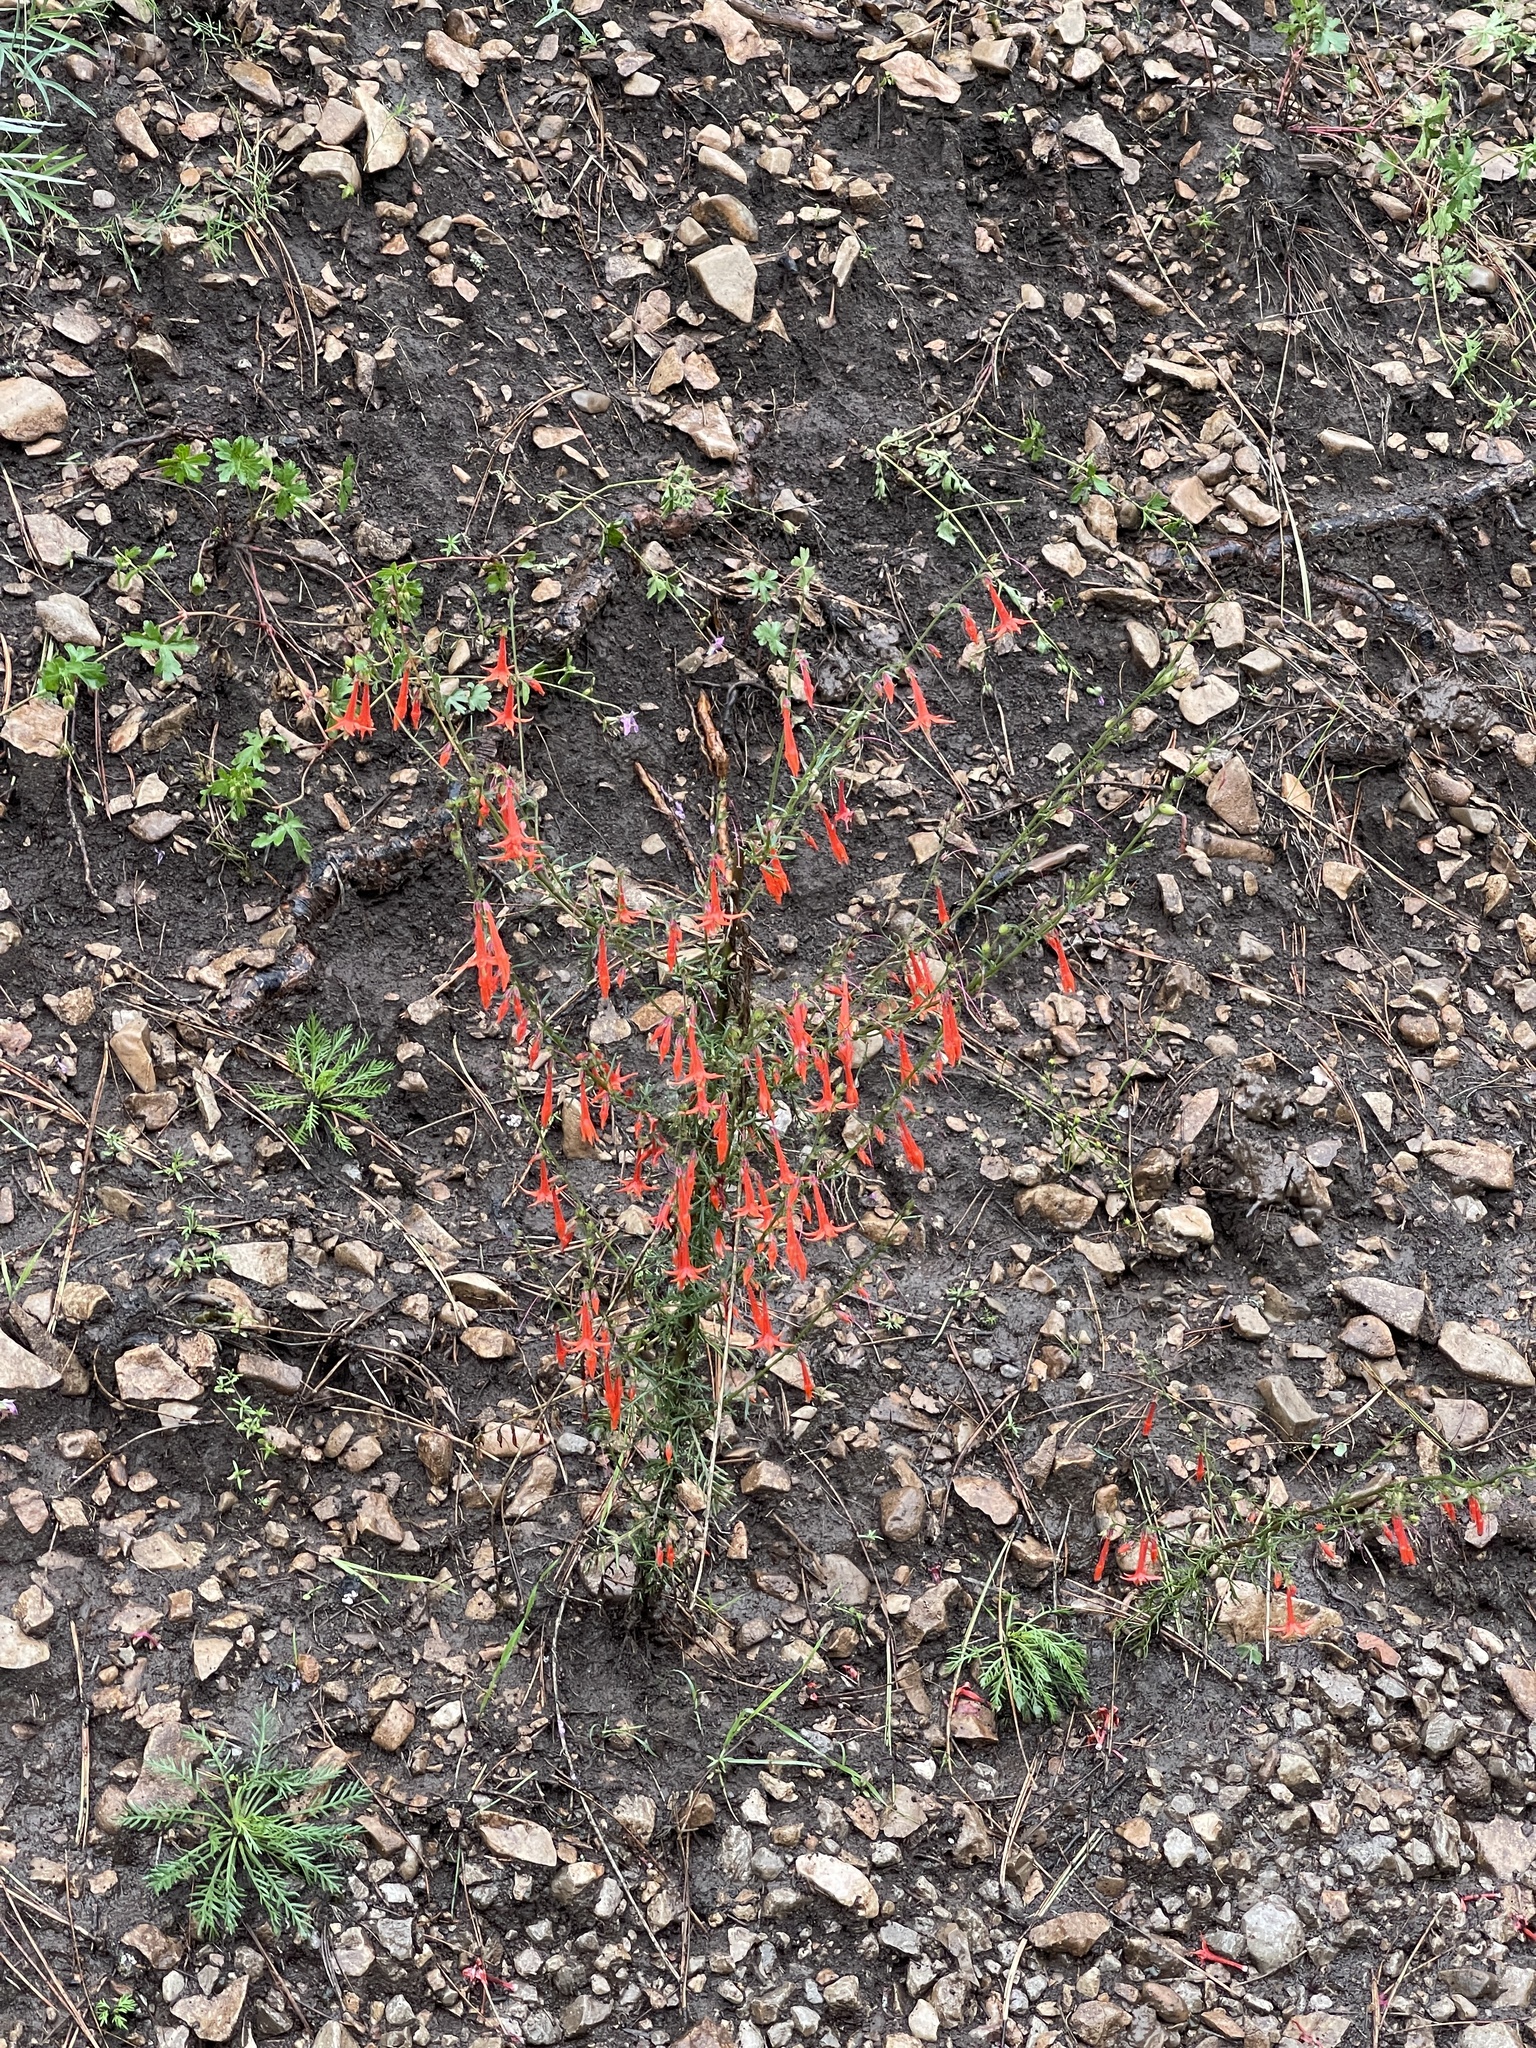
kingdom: Plantae
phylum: Tracheophyta
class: Magnoliopsida
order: Ericales
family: Polemoniaceae
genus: Ipomopsis
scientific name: Ipomopsis aggregata
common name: Scarlet gilia
